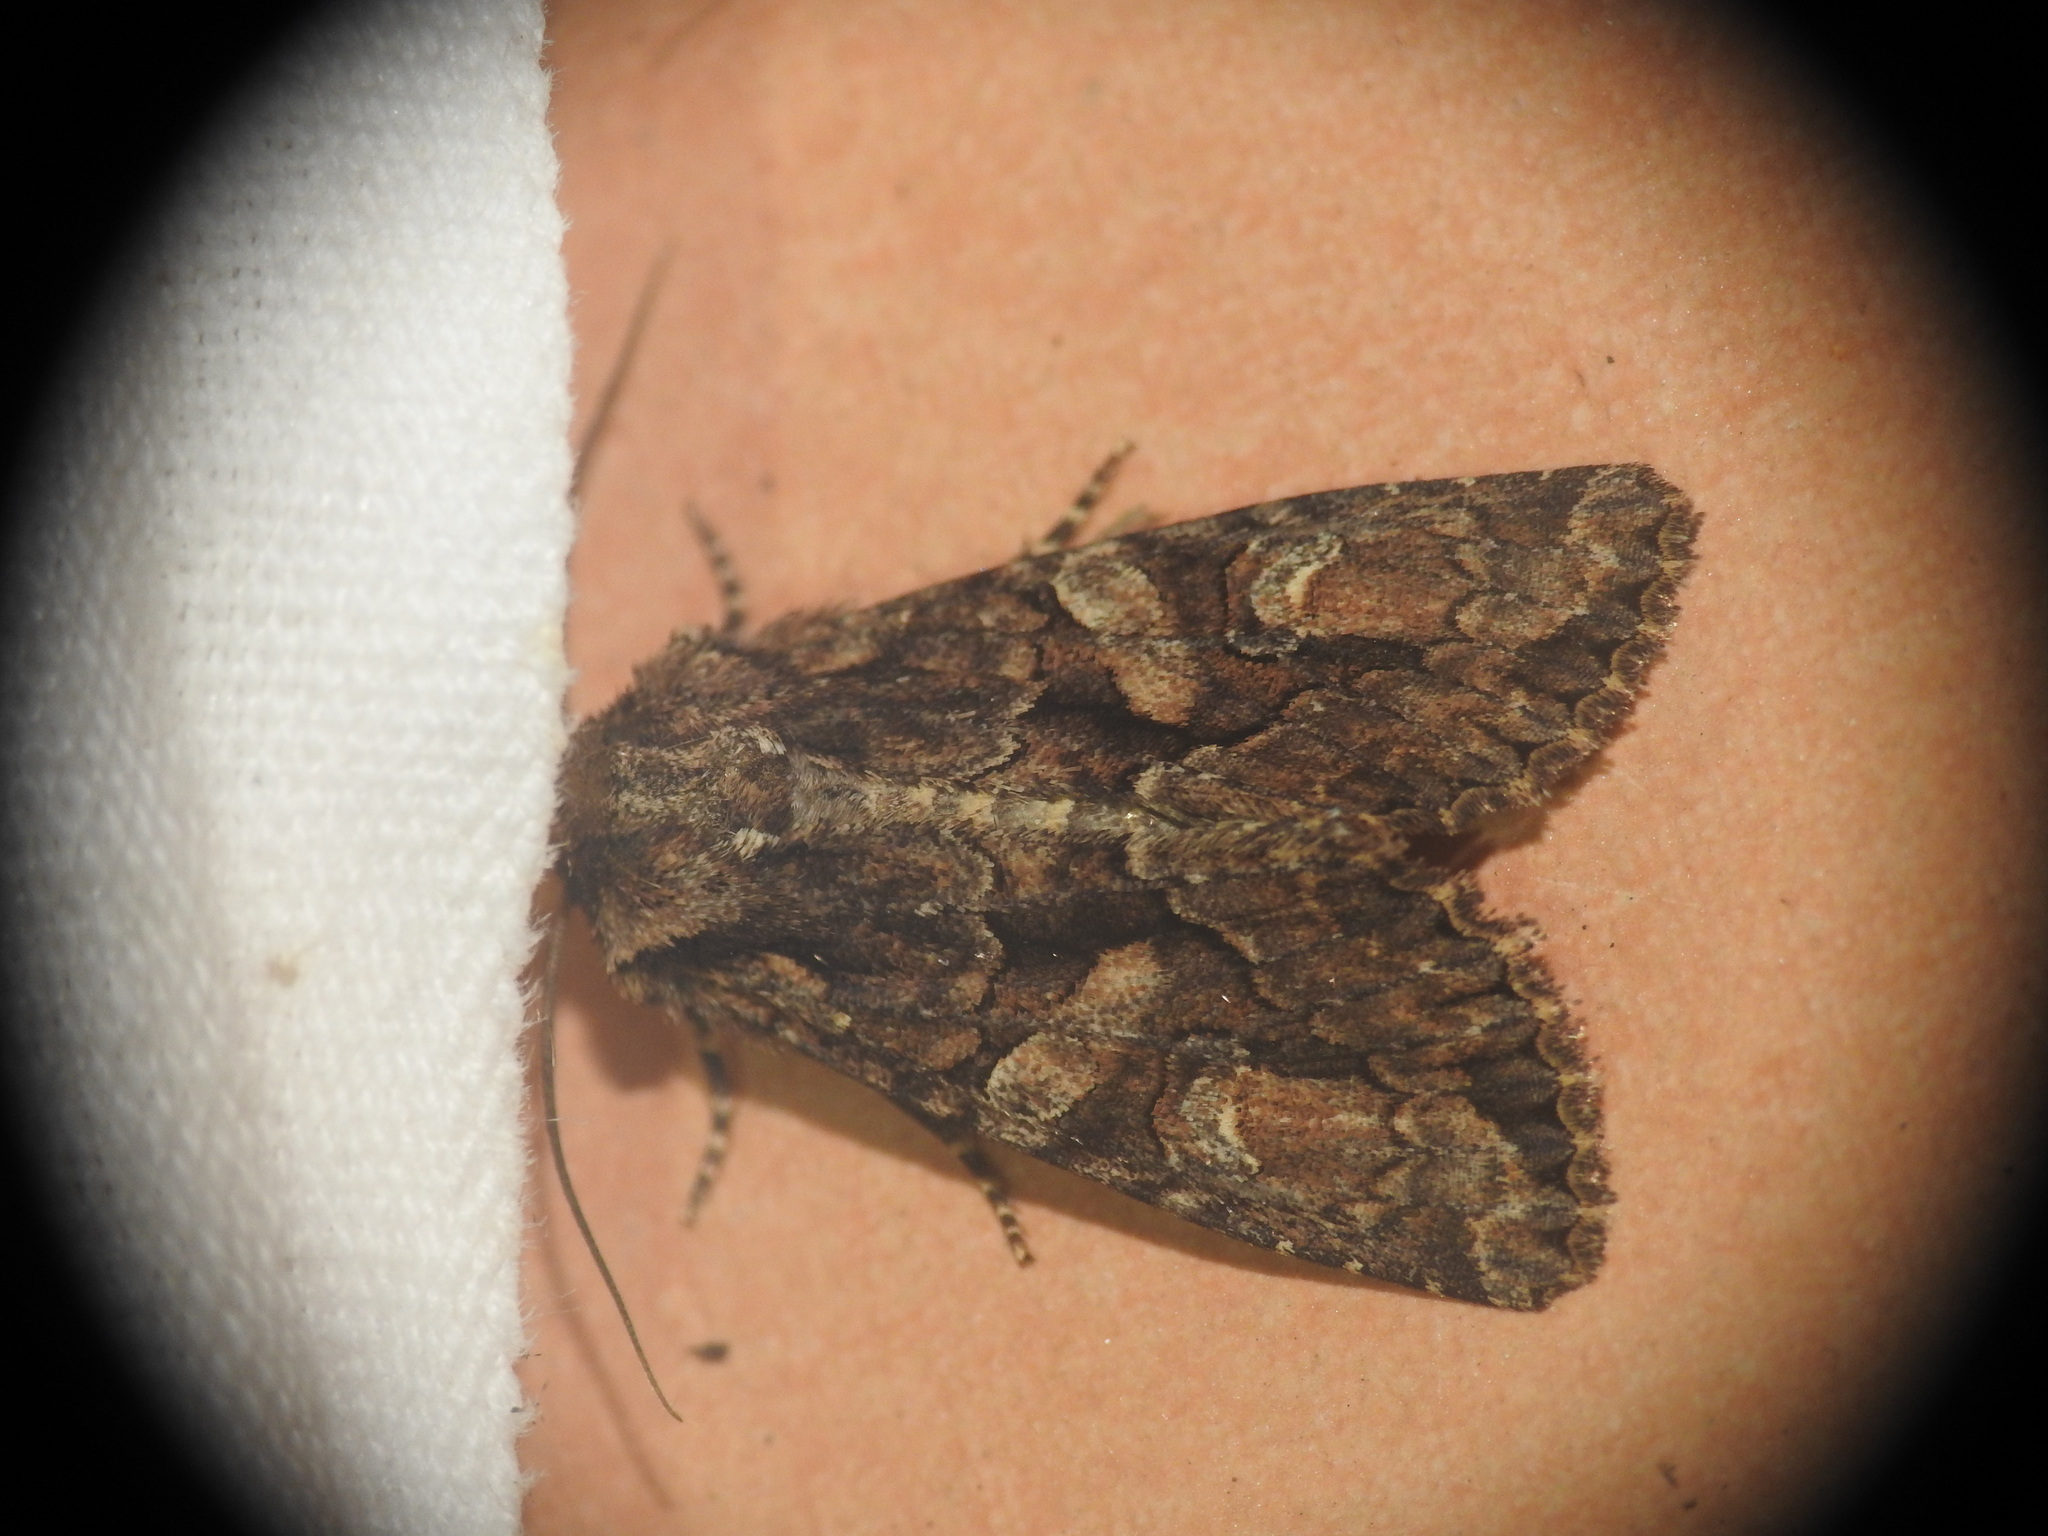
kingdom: Animalia
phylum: Arthropoda
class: Insecta
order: Lepidoptera
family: Noctuidae
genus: Dryobotodes
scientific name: Dryobotodes tenebrosa
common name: Sombre brocade
